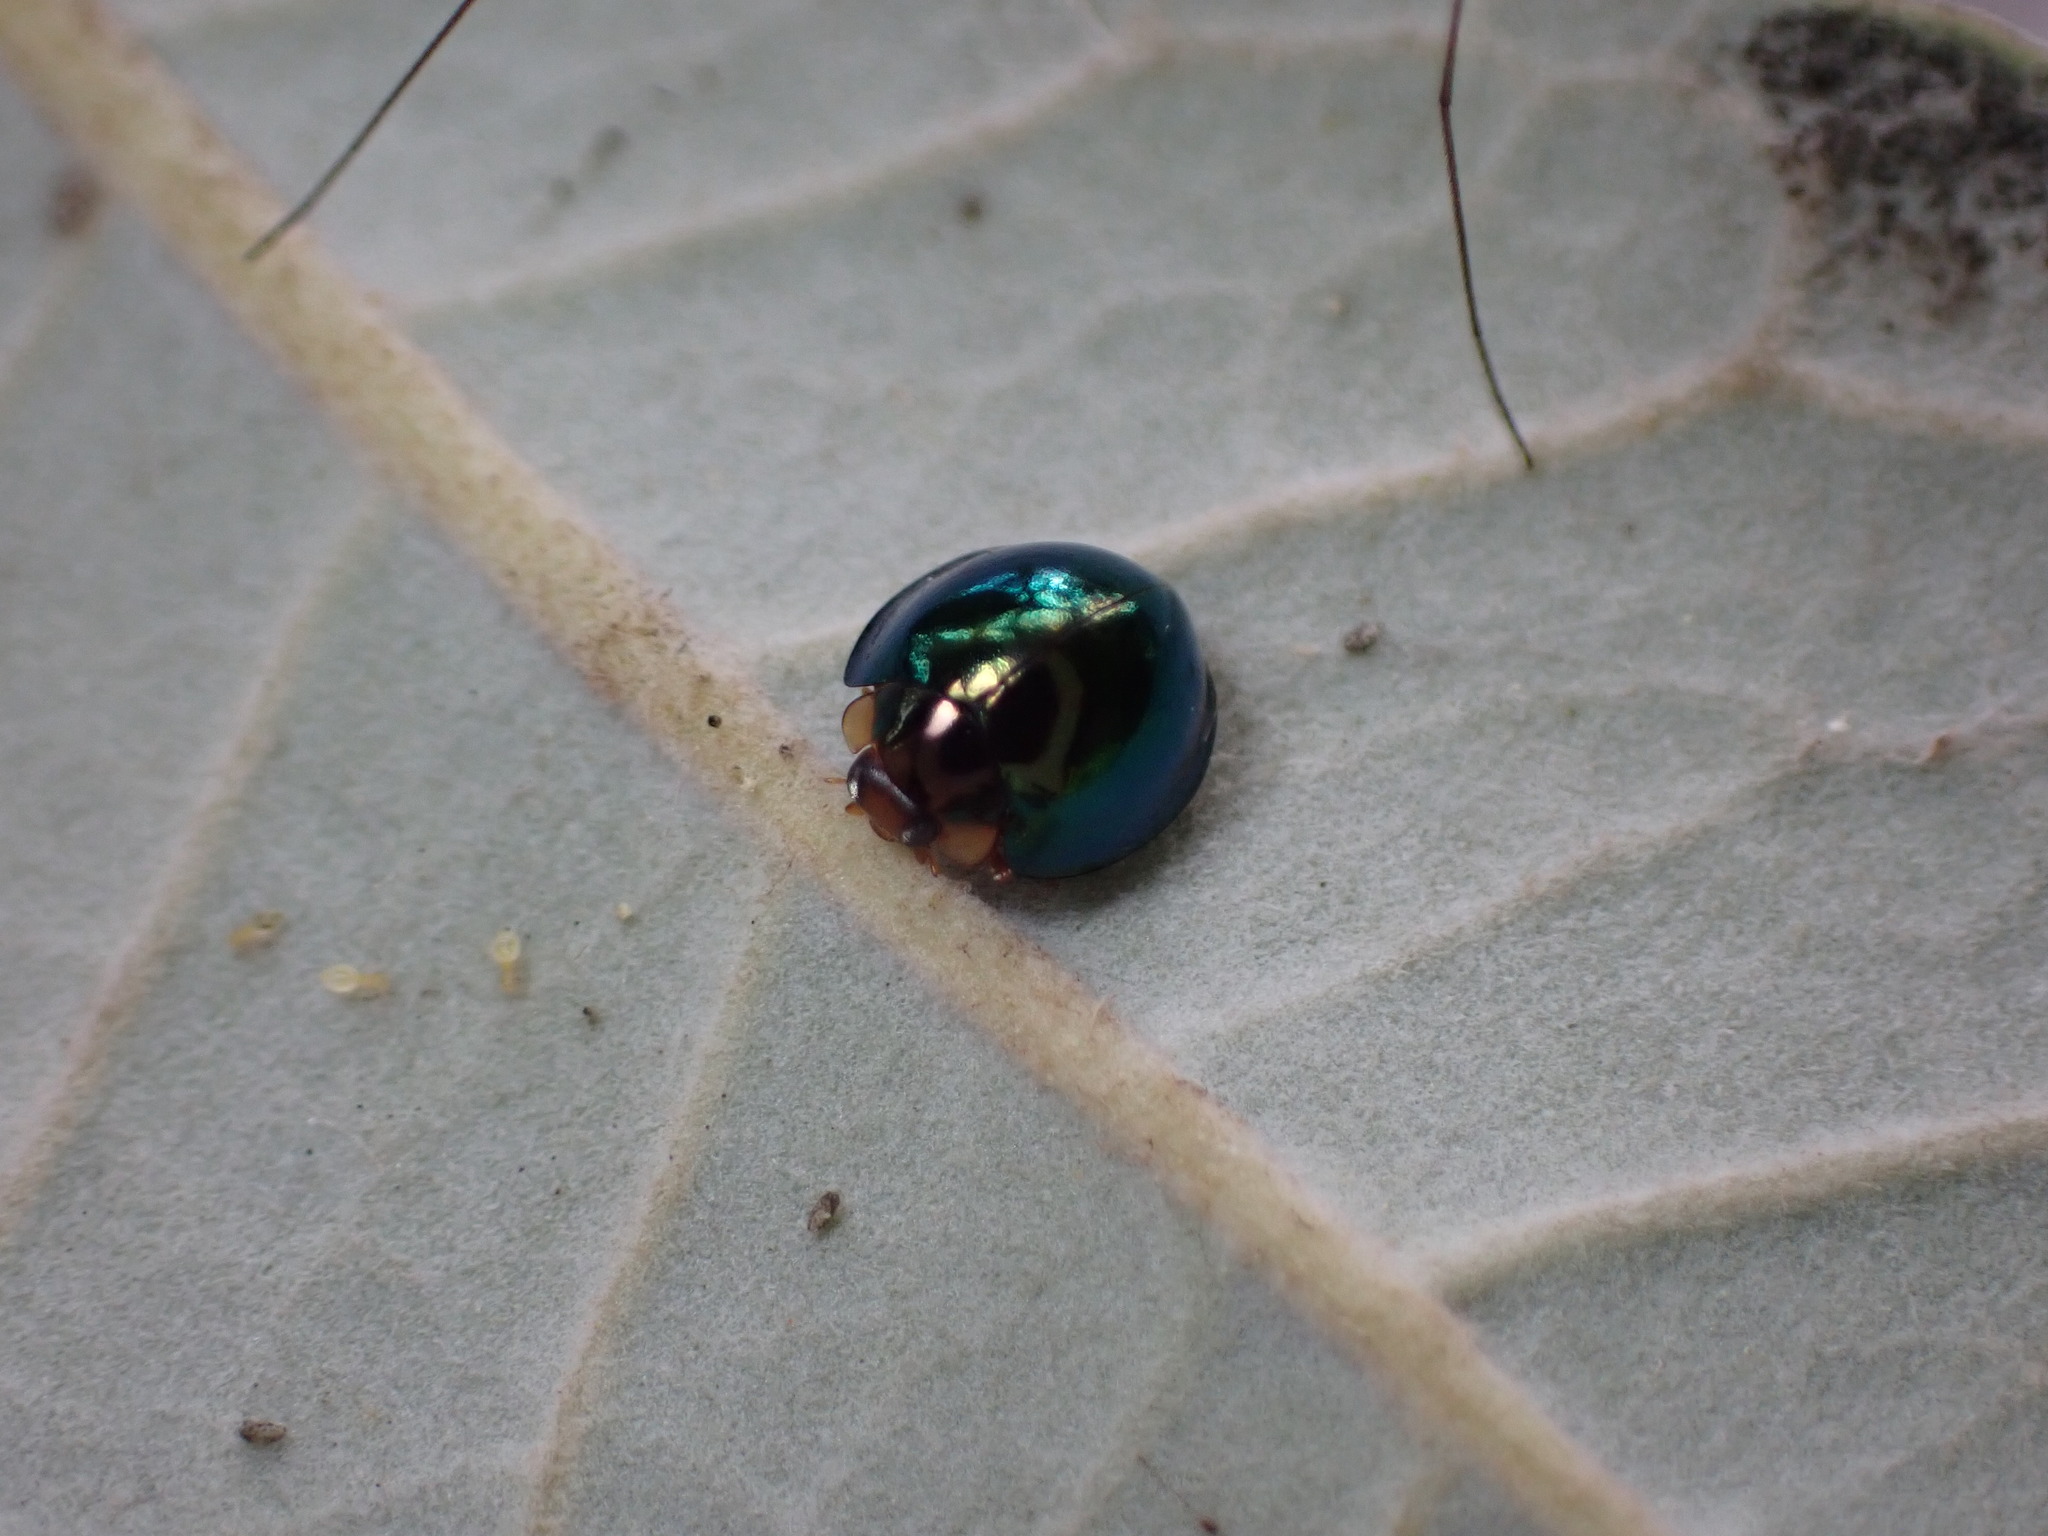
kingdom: Animalia
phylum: Arthropoda
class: Insecta
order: Coleoptera
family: Coccinellidae
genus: Halmus
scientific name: Halmus chalybeus
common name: Steel blue ladybird beetle
